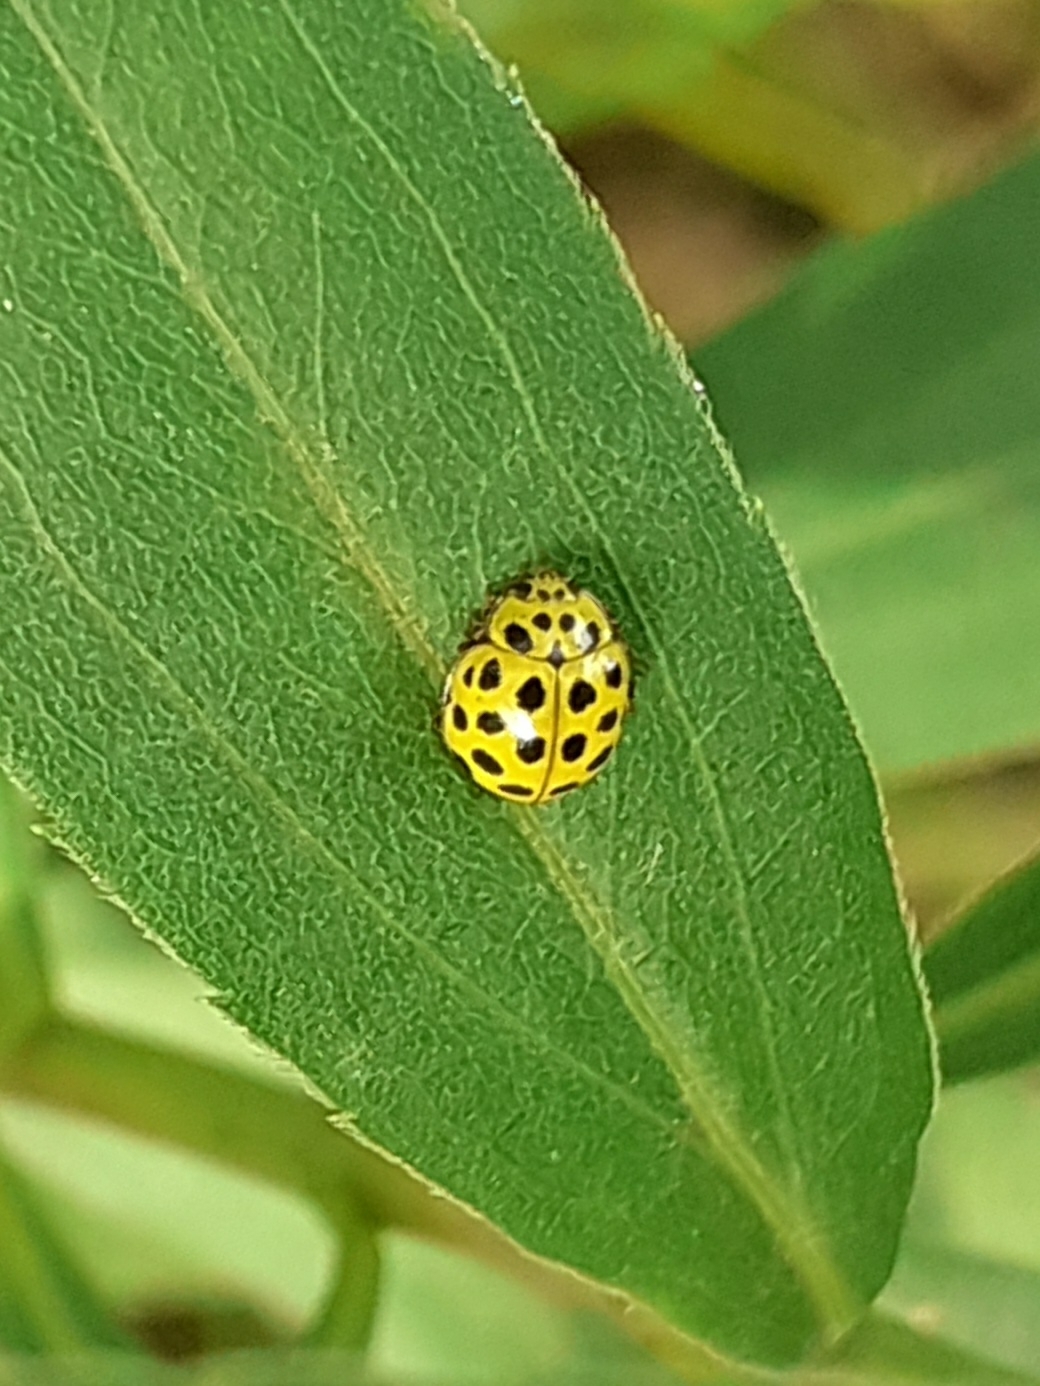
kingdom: Animalia
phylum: Arthropoda
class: Insecta
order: Coleoptera
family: Coccinellidae
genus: Psyllobora
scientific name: Psyllobora vigintiduopunctata
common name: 22-spot ladybird
